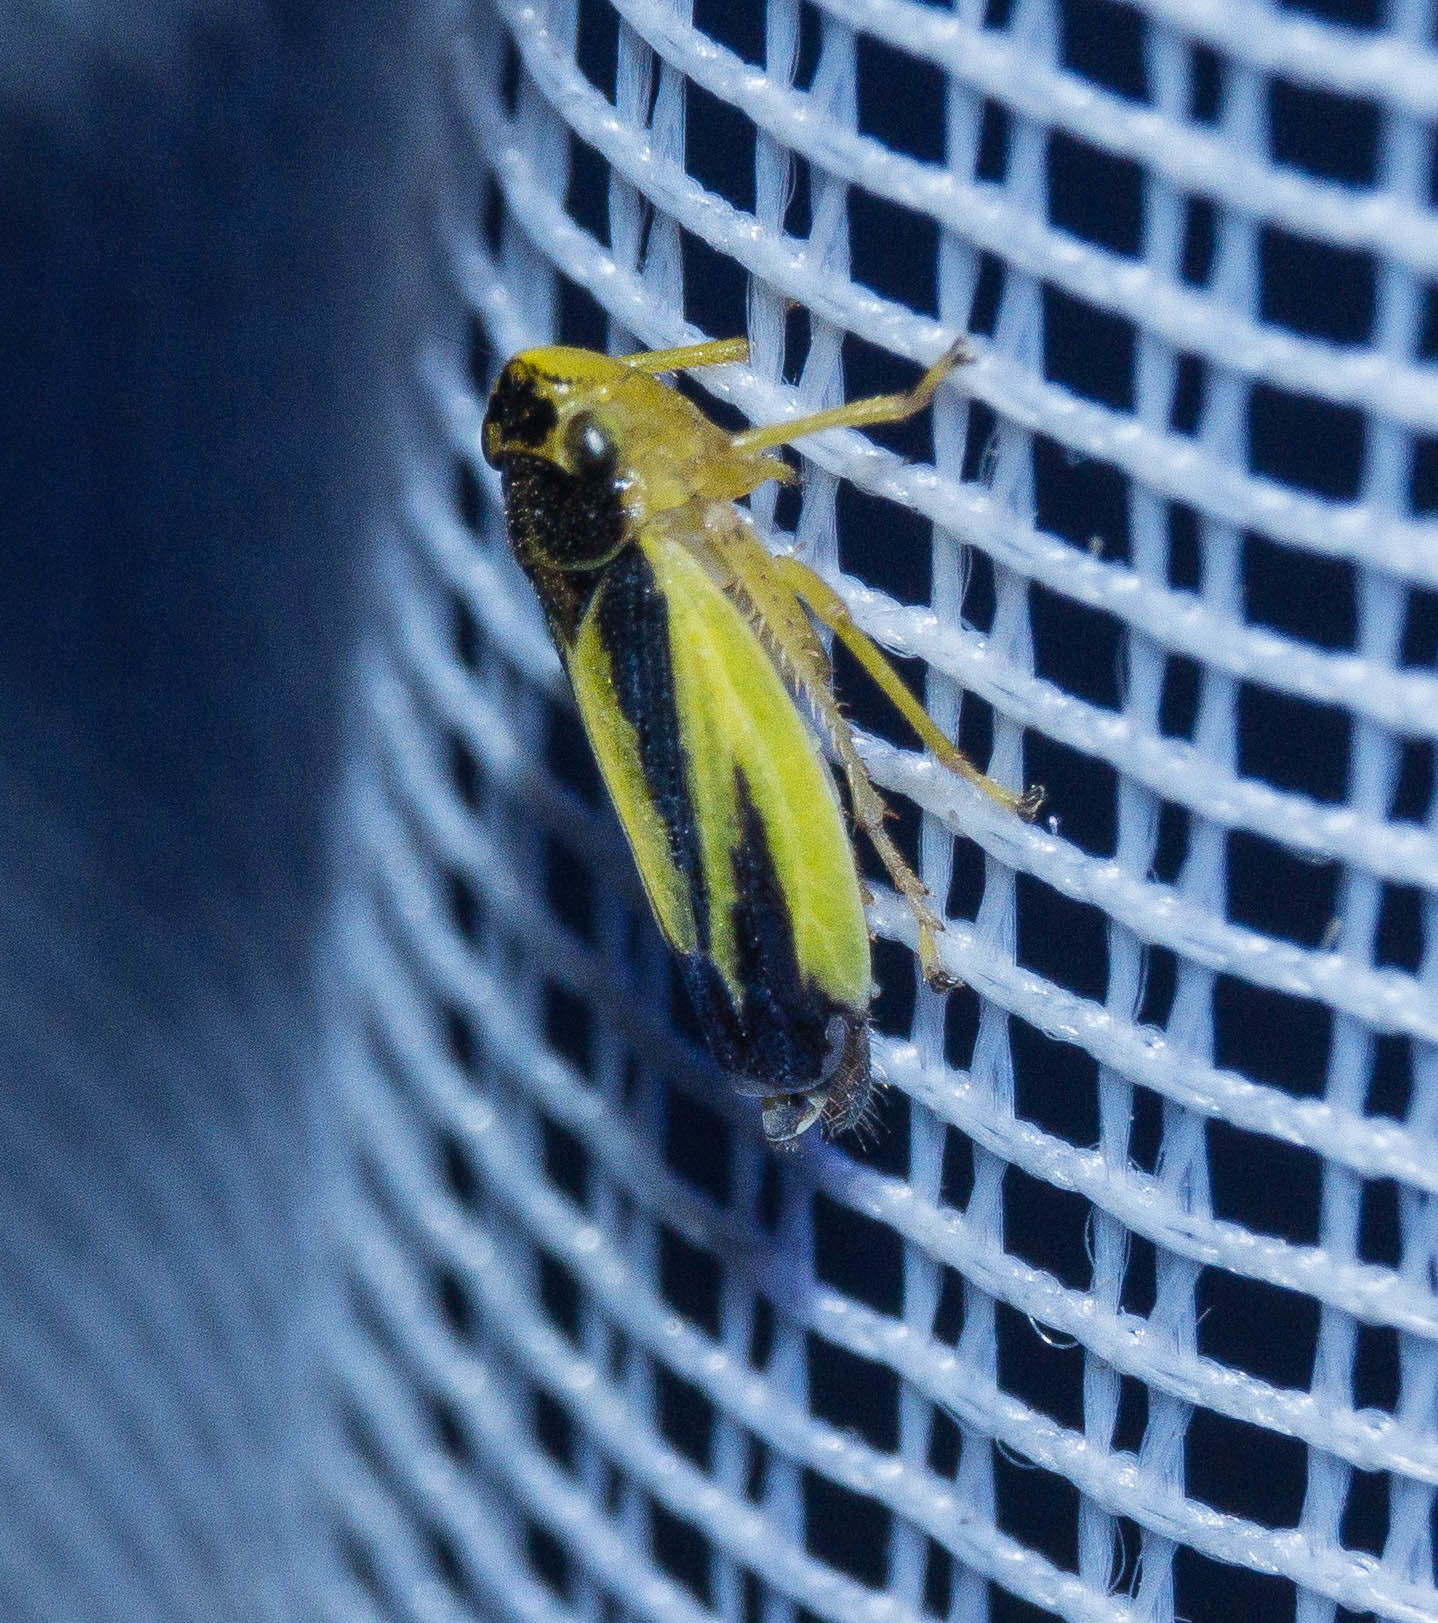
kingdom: Animalia
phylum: Arthropoda
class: Insecta
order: Hemiptera
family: Cicadellidae
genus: Evacanthus
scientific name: Evacanthus interruptus
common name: Leafhopper
